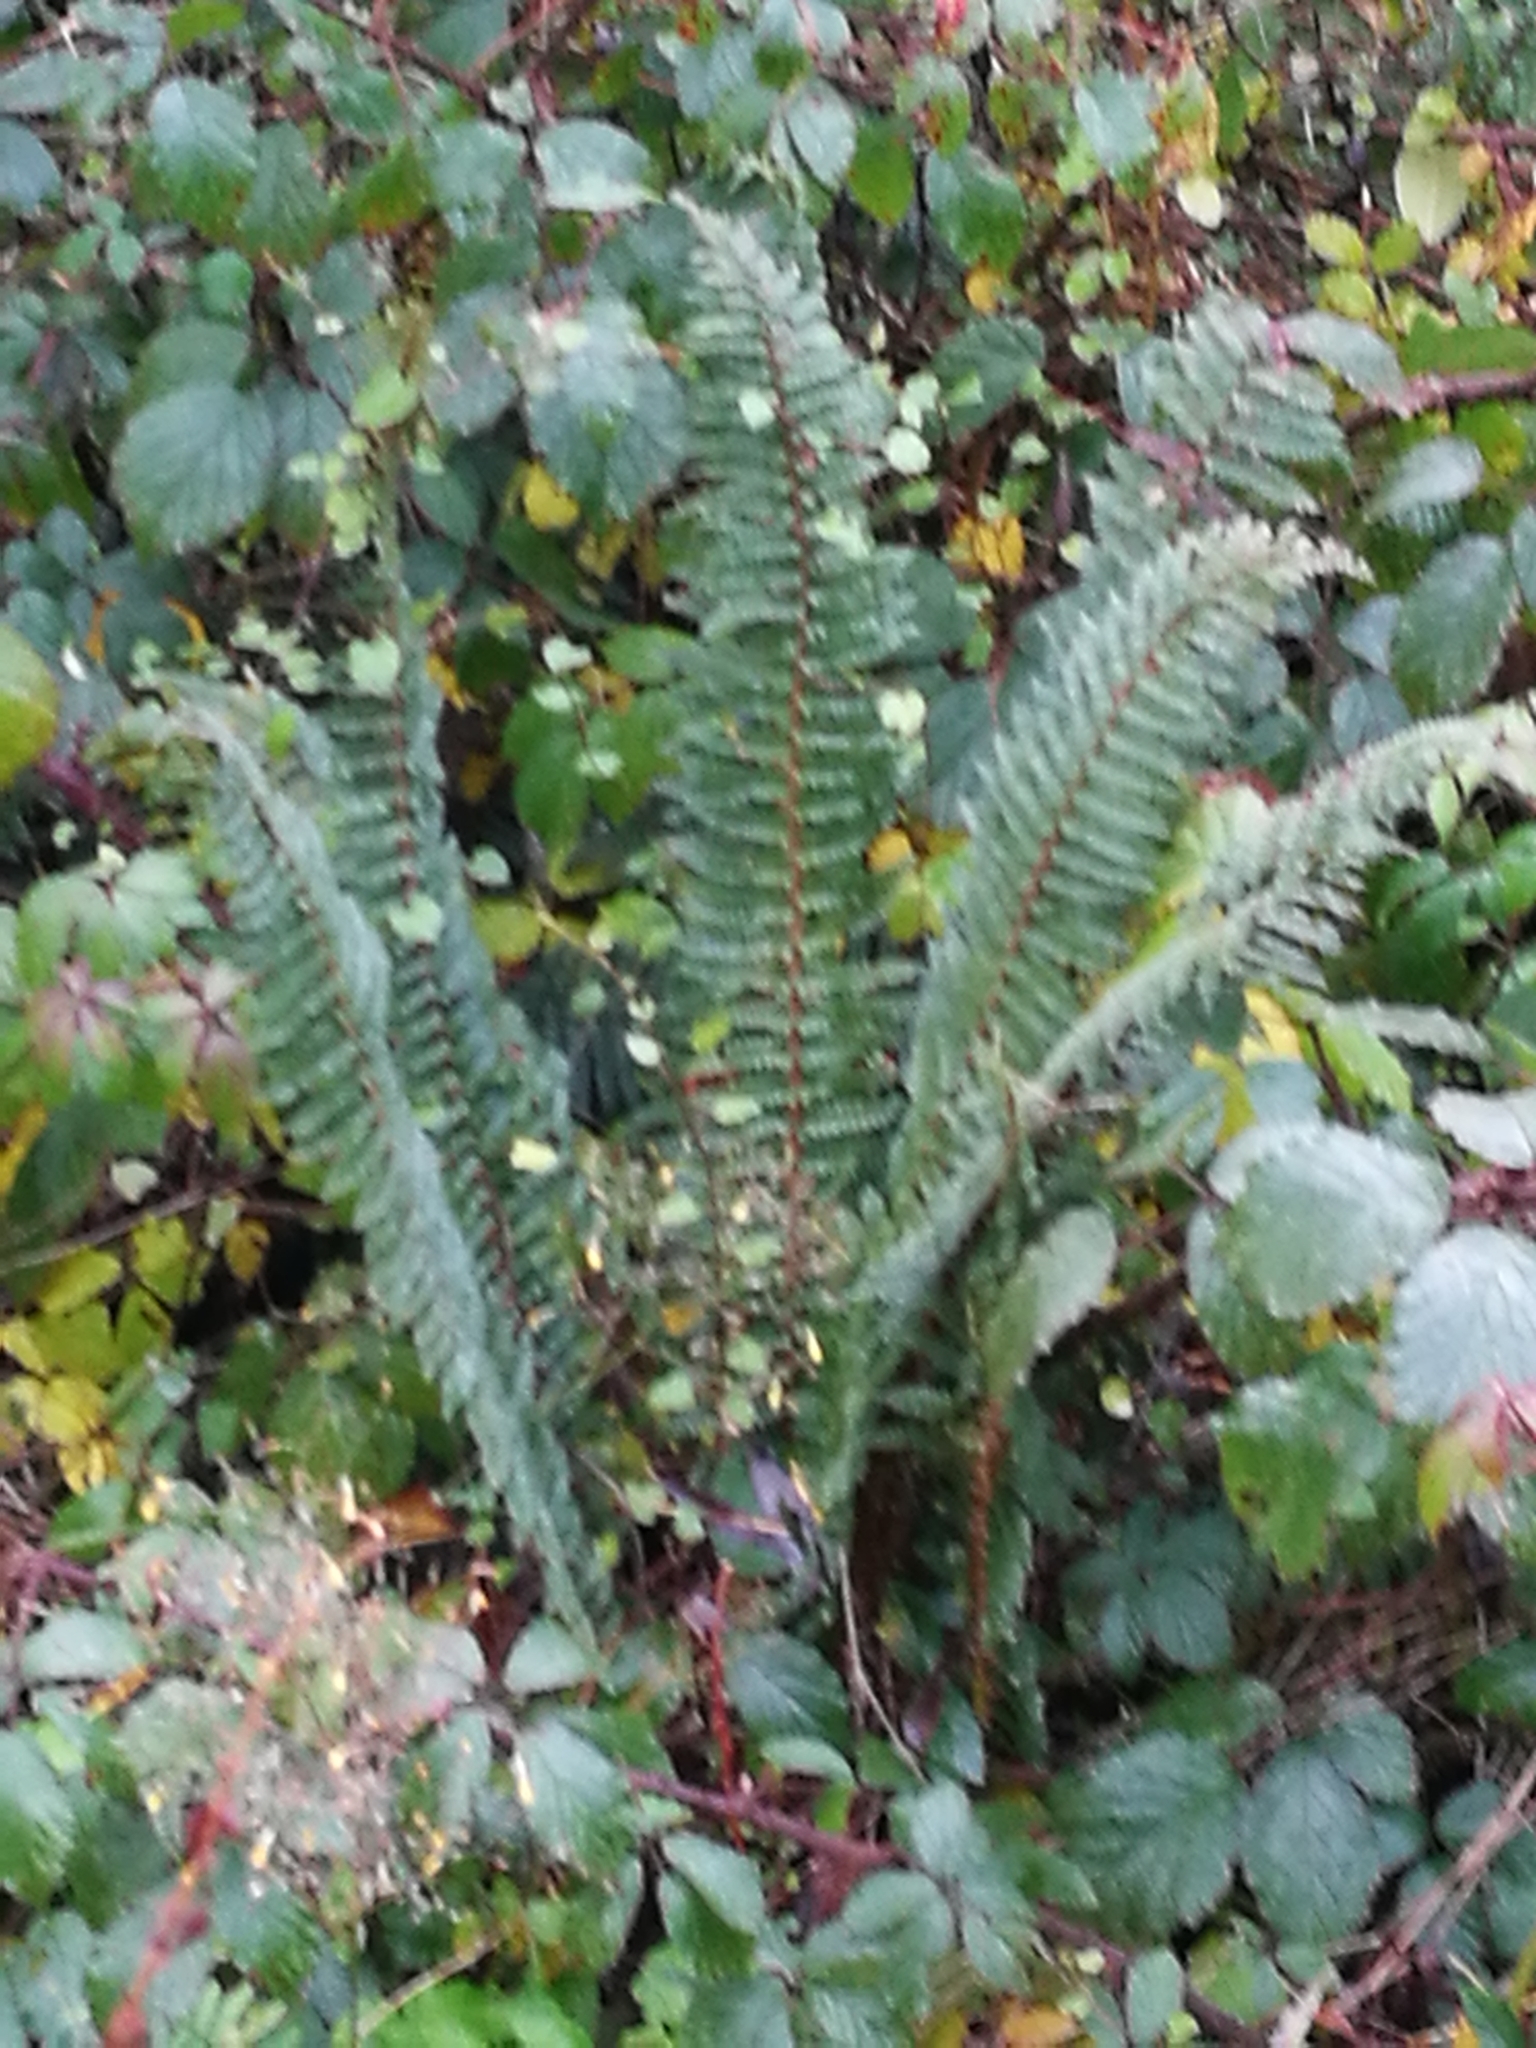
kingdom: Plantae
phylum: Tracheophyta
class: Polypodiopsida
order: Polypodiales
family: Dryopteridaceae
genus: Polystichum
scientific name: Polystichum vestitum
